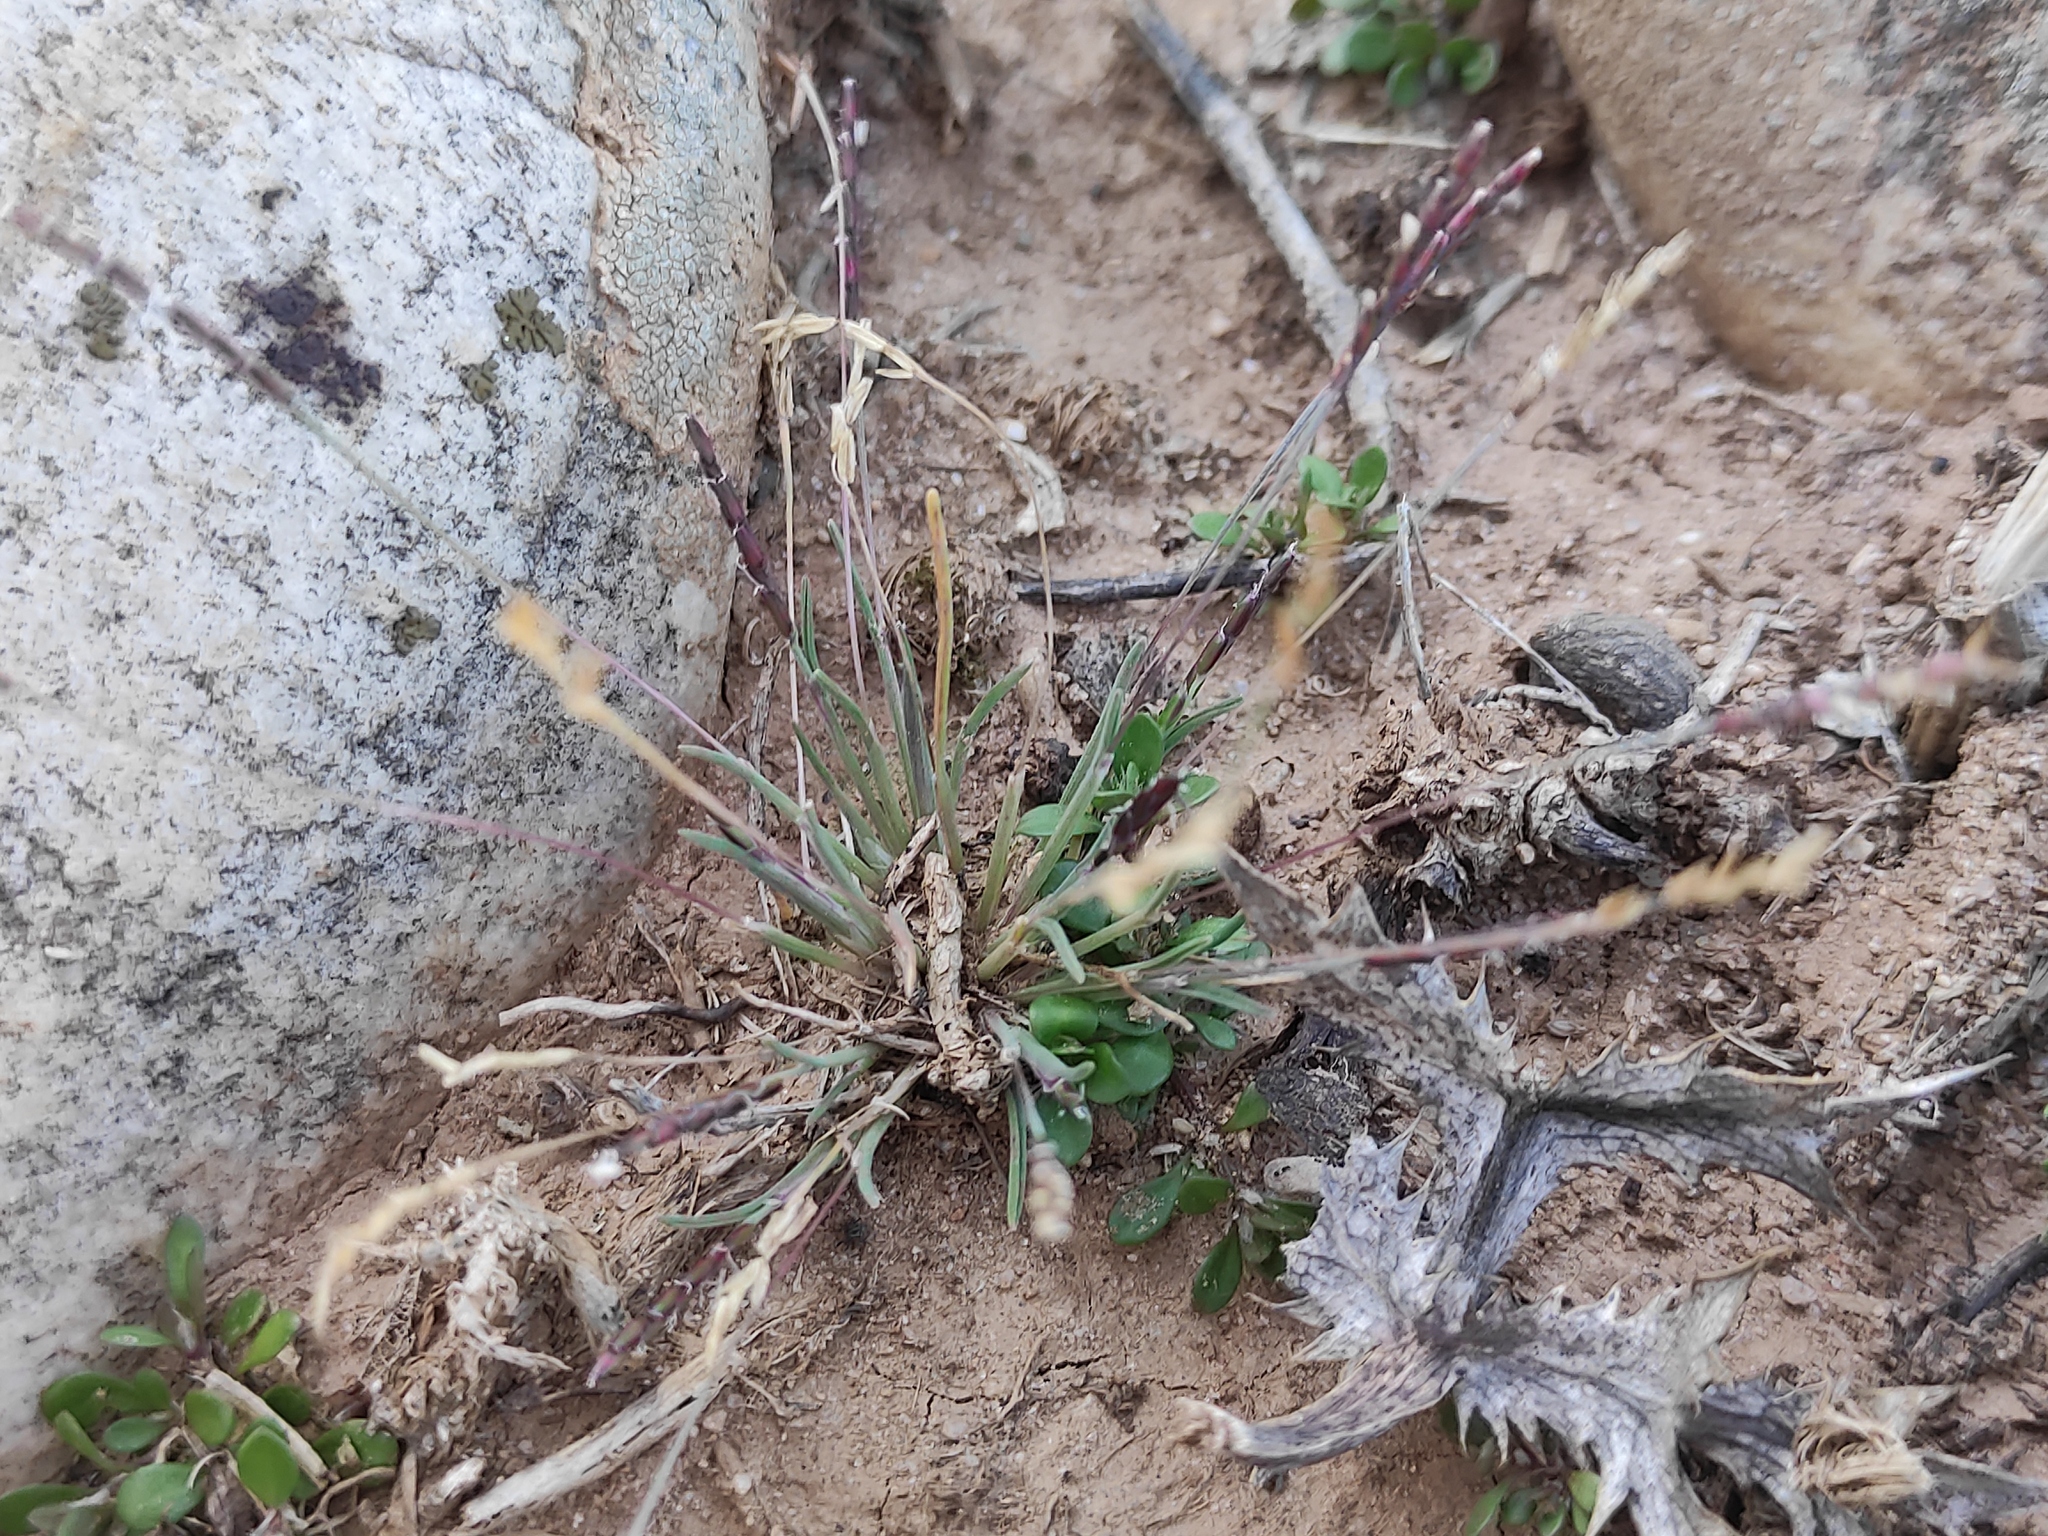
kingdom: Plantae
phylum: Tracheophyta
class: Liliopsida
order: Poales
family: Poaceae
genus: Mibora
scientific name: Mibora minima
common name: Early sand-grass
